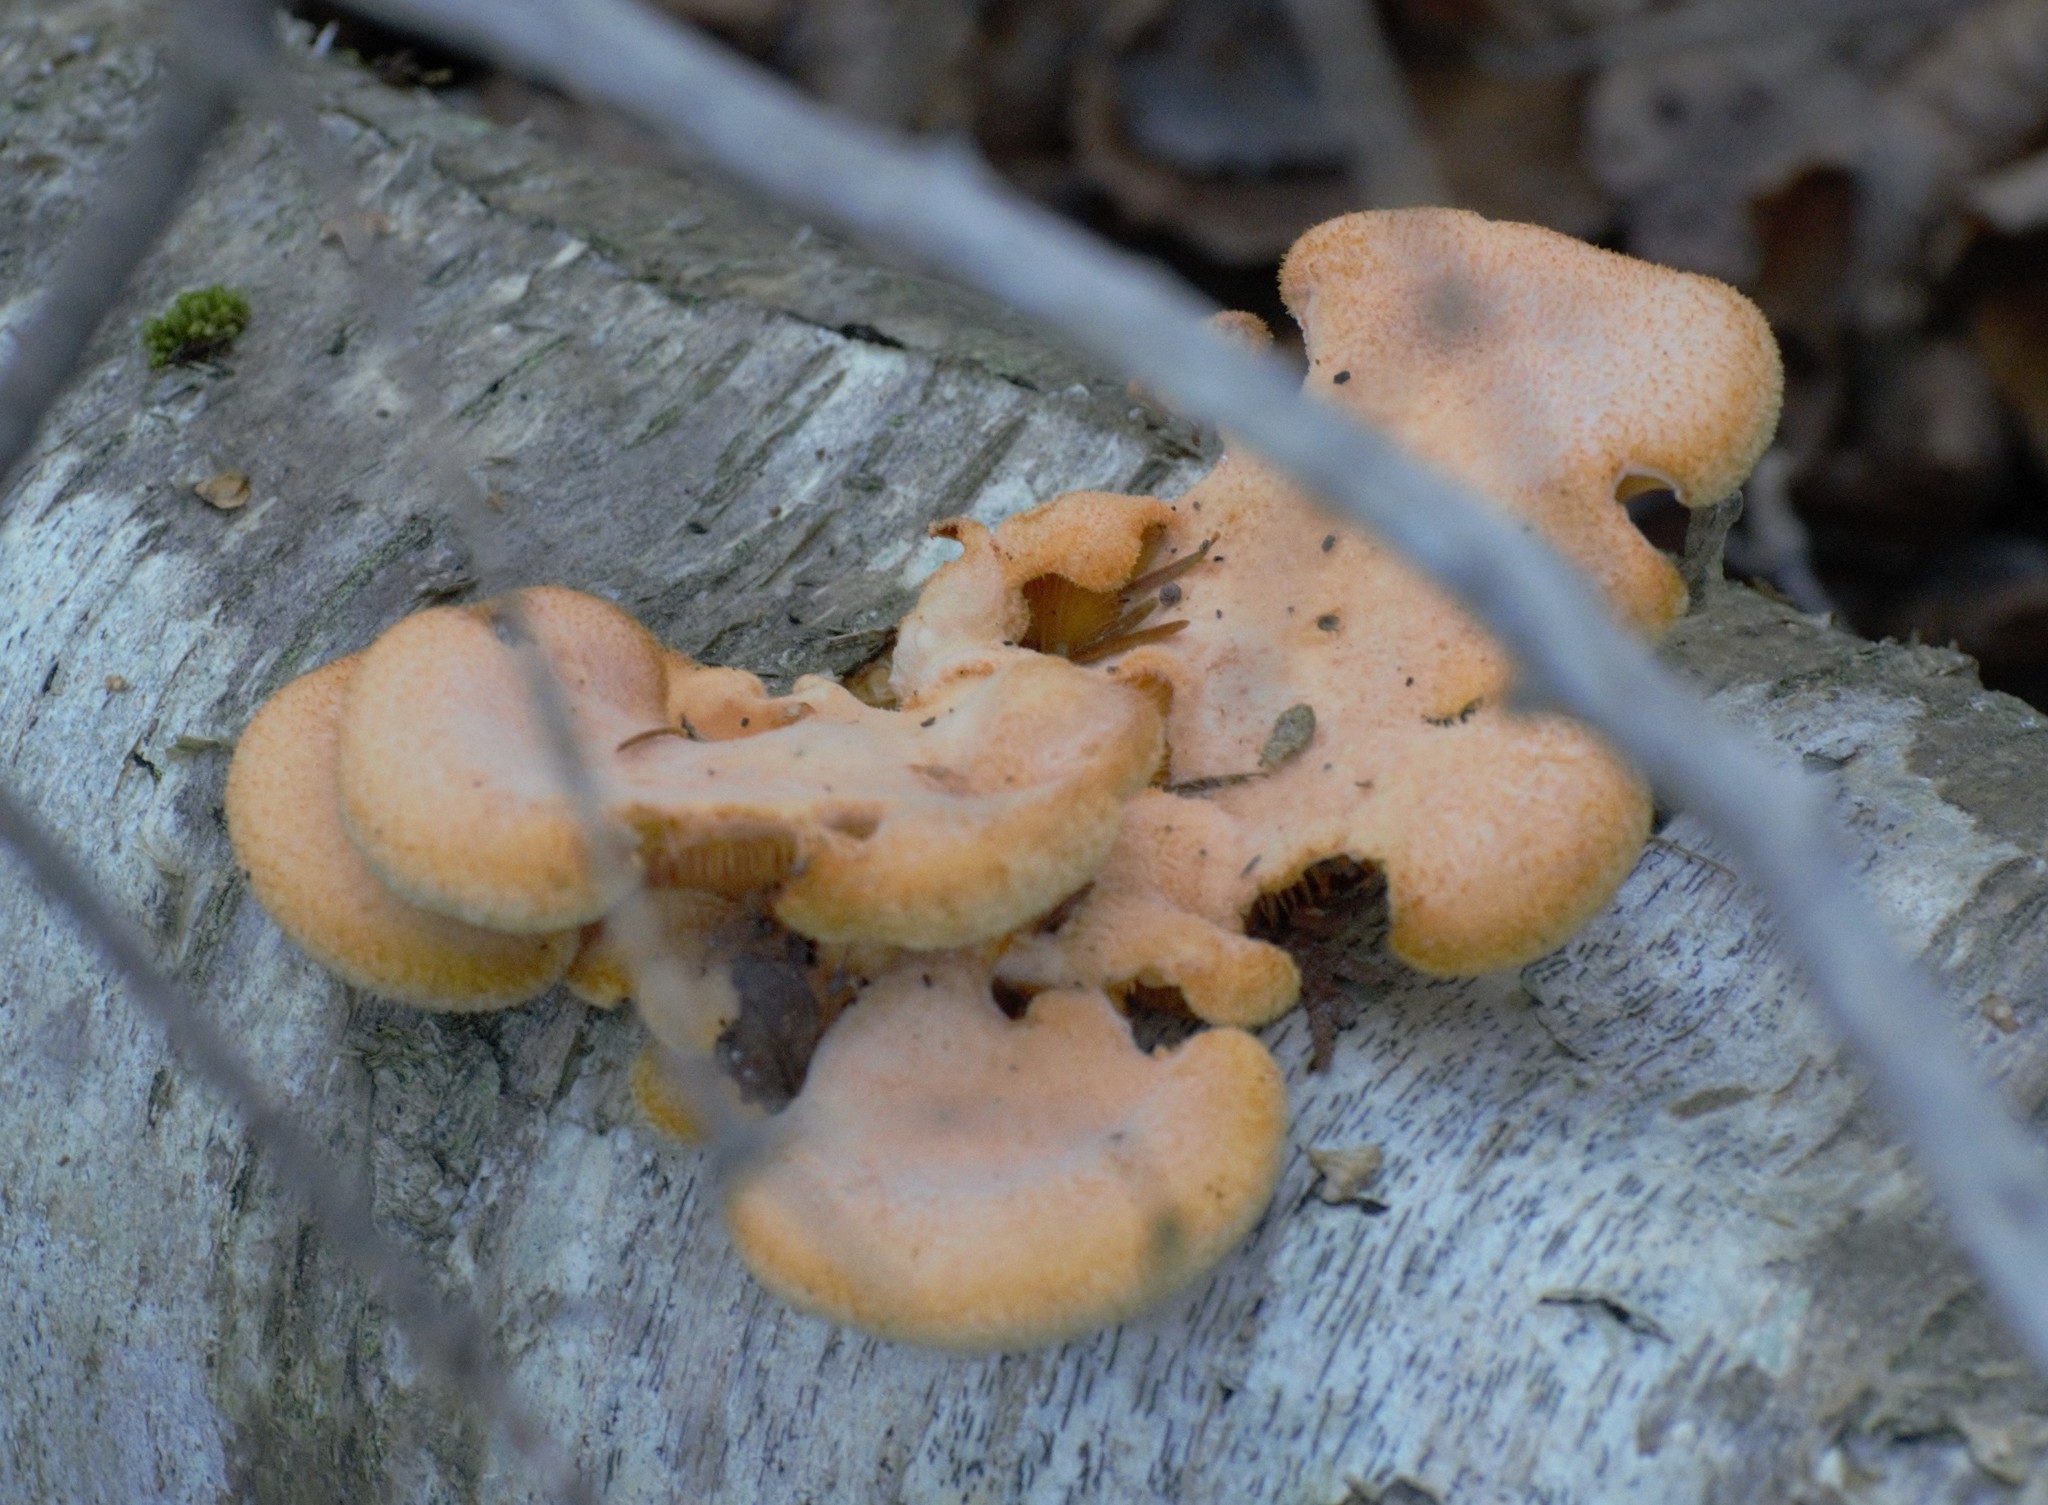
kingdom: Fungi
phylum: Basidiomycota
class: Agaricomycetes
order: Agaricales
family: Phyllotopsidaceae
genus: Phyllotopsis
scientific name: Phyllotopsis nidulans
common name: Orange mock oyster
